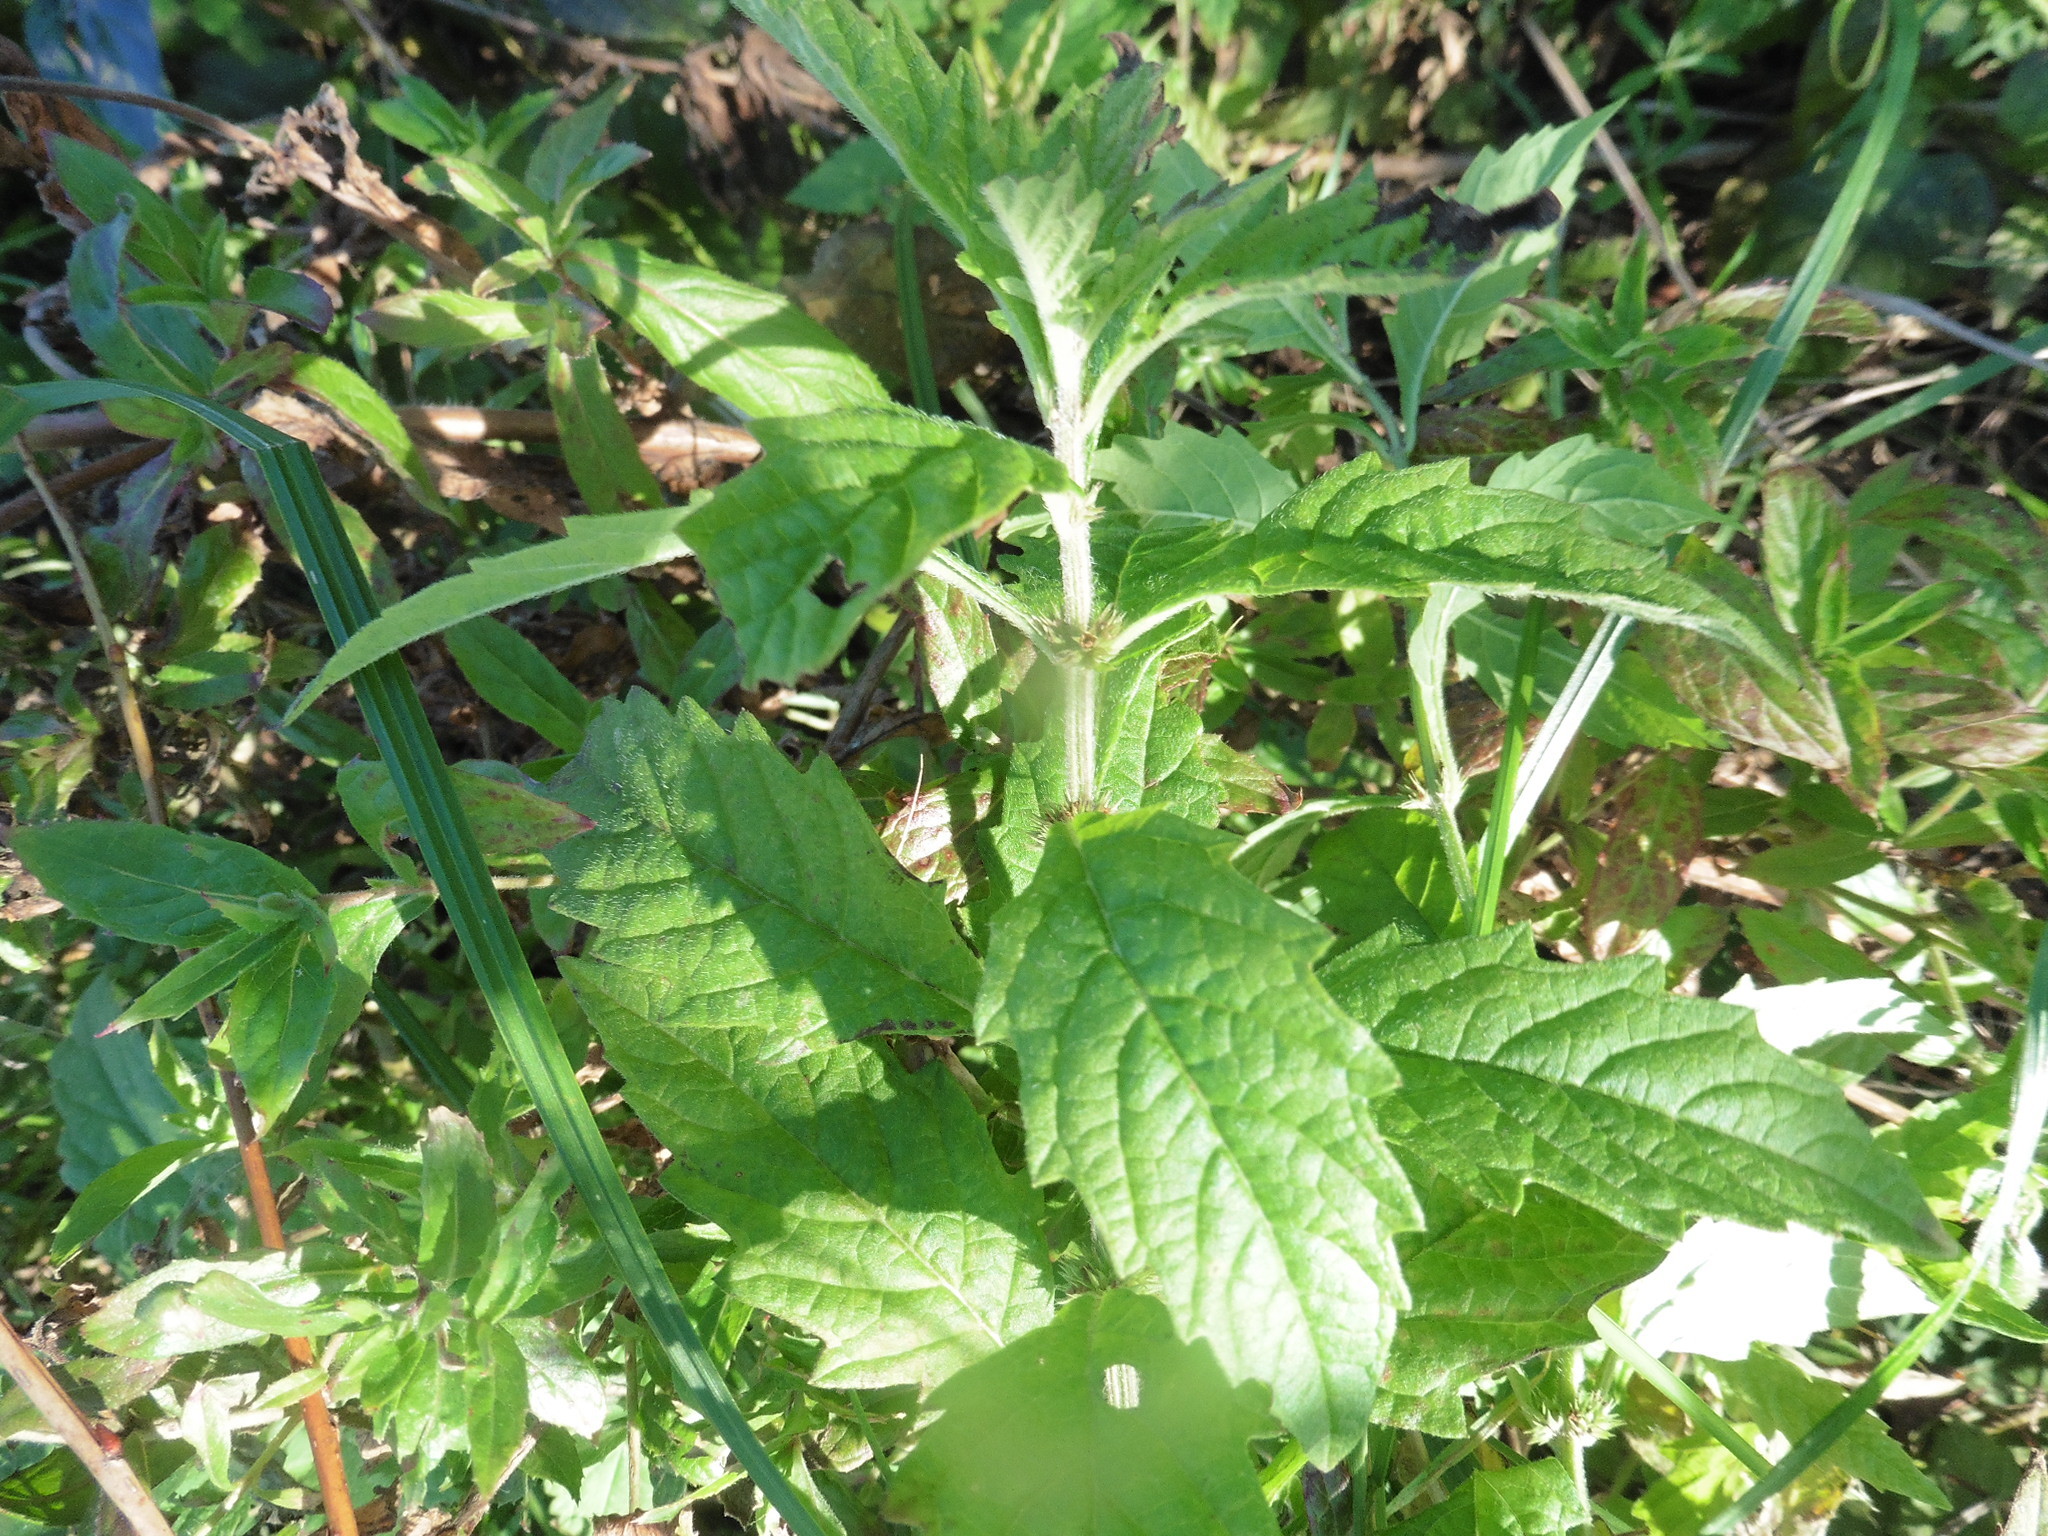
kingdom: Plantae
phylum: Tracheophyta
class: Magnoliopsida
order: Lamiales
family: Lamiaceae
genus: Lycopus
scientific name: Lycopus europaeus
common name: European bugleweed
